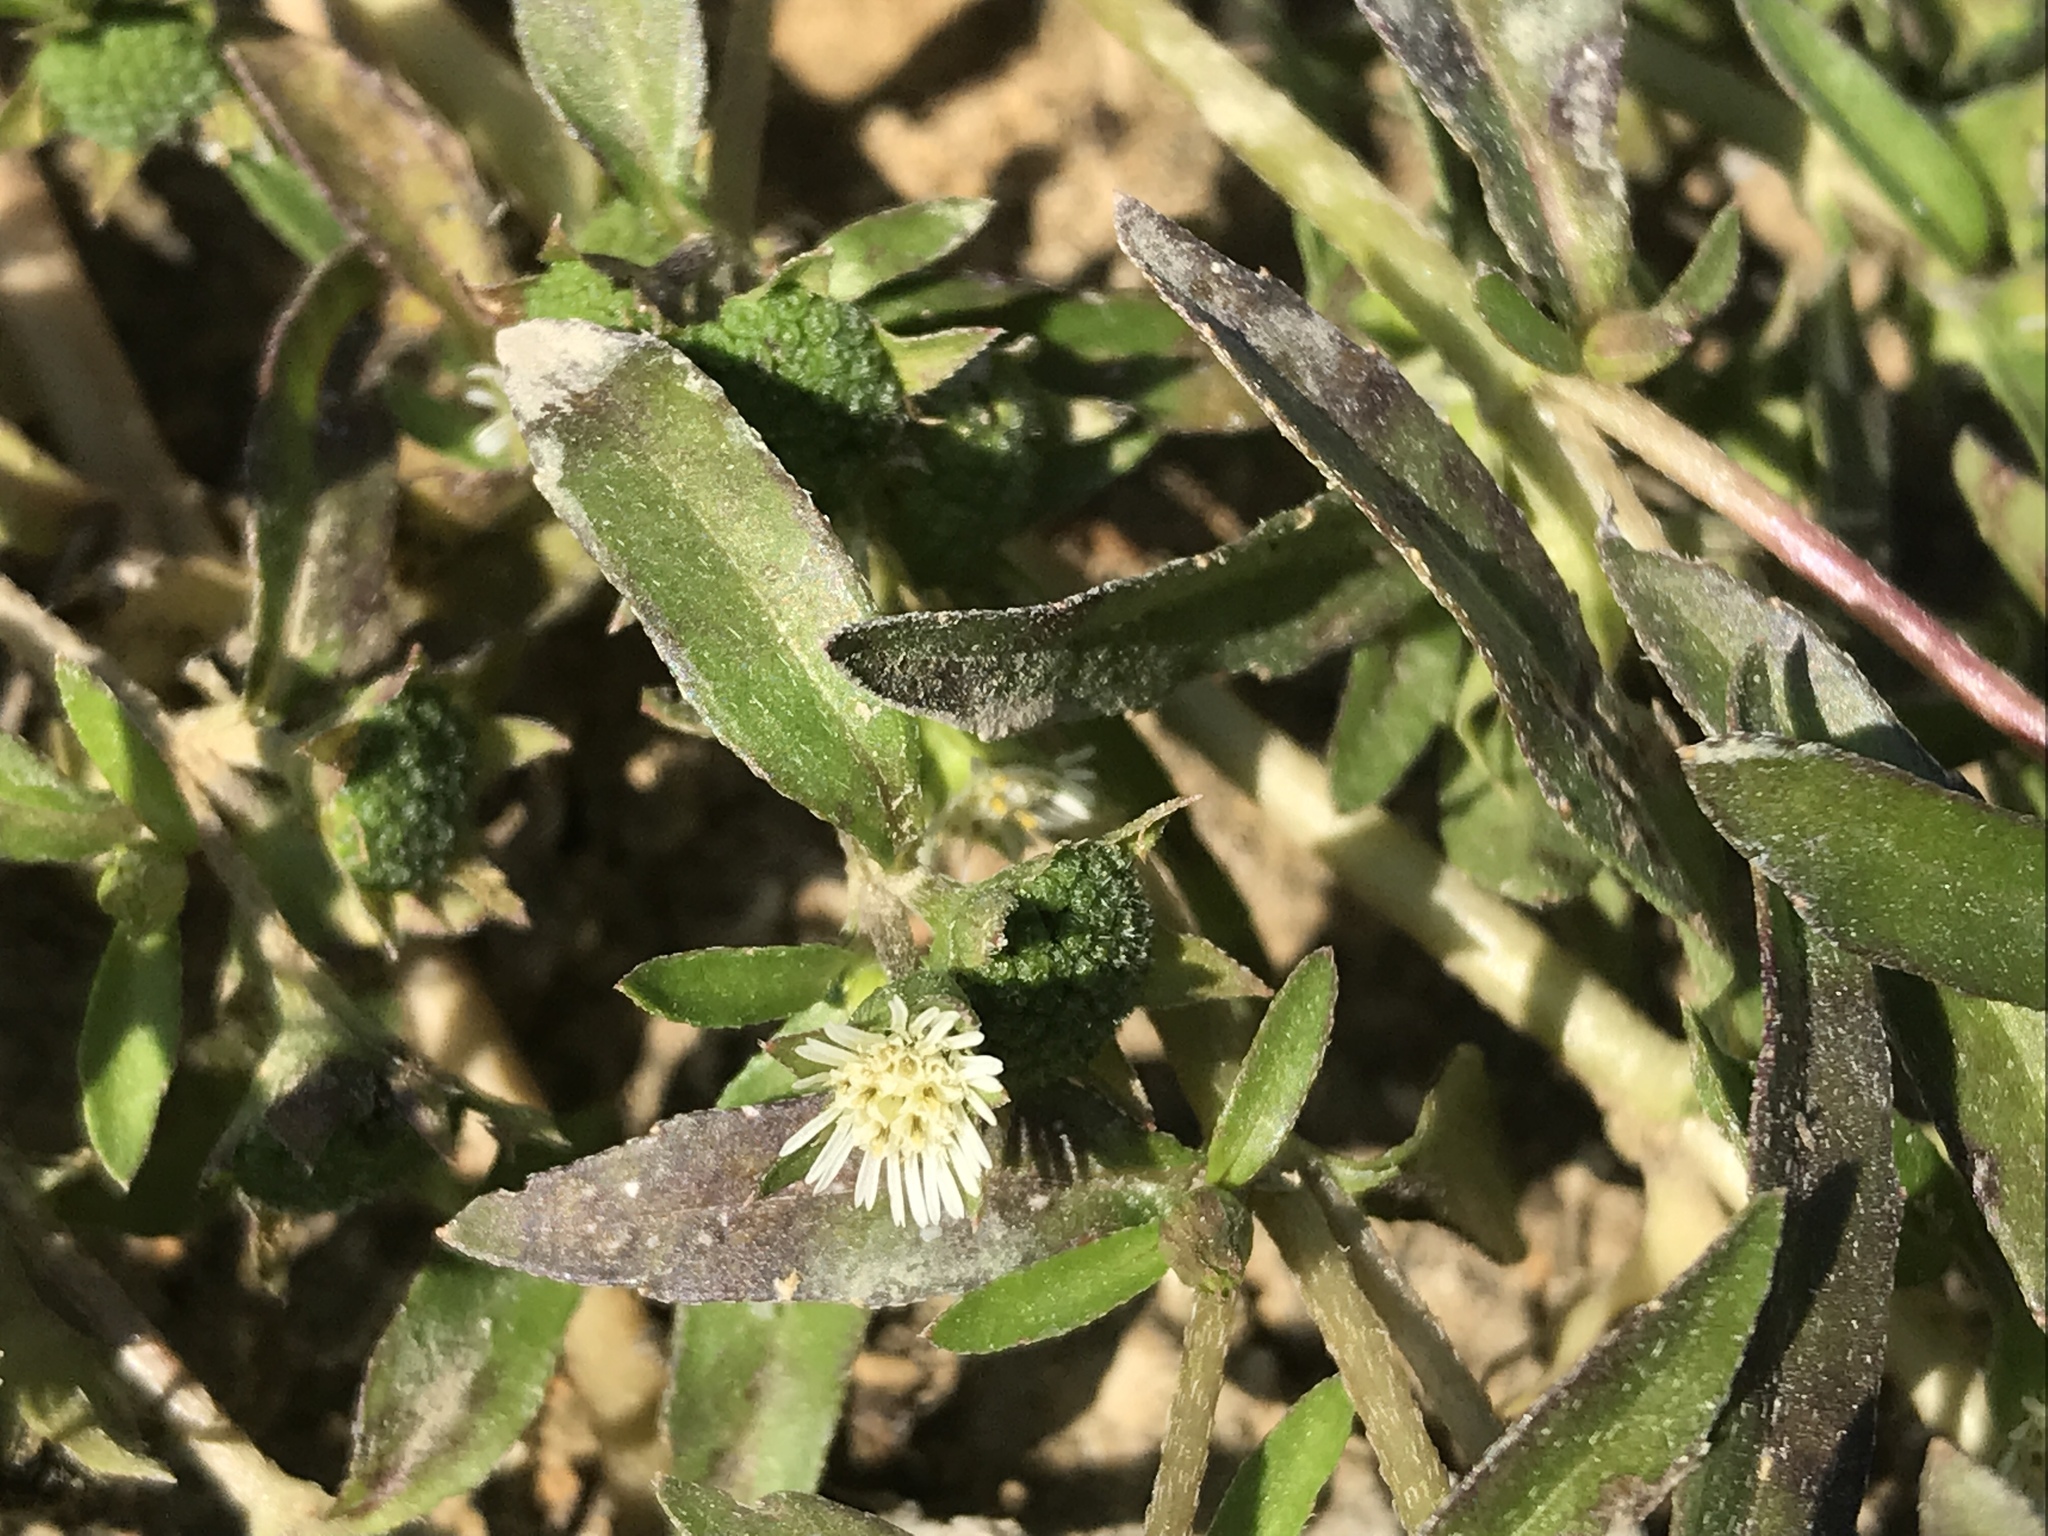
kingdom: Plantae
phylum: Tracheophyta
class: Magnoliopsida
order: Asterales
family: Asteraceae
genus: Eclipta
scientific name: Eclipta prostrata
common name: False daisy
